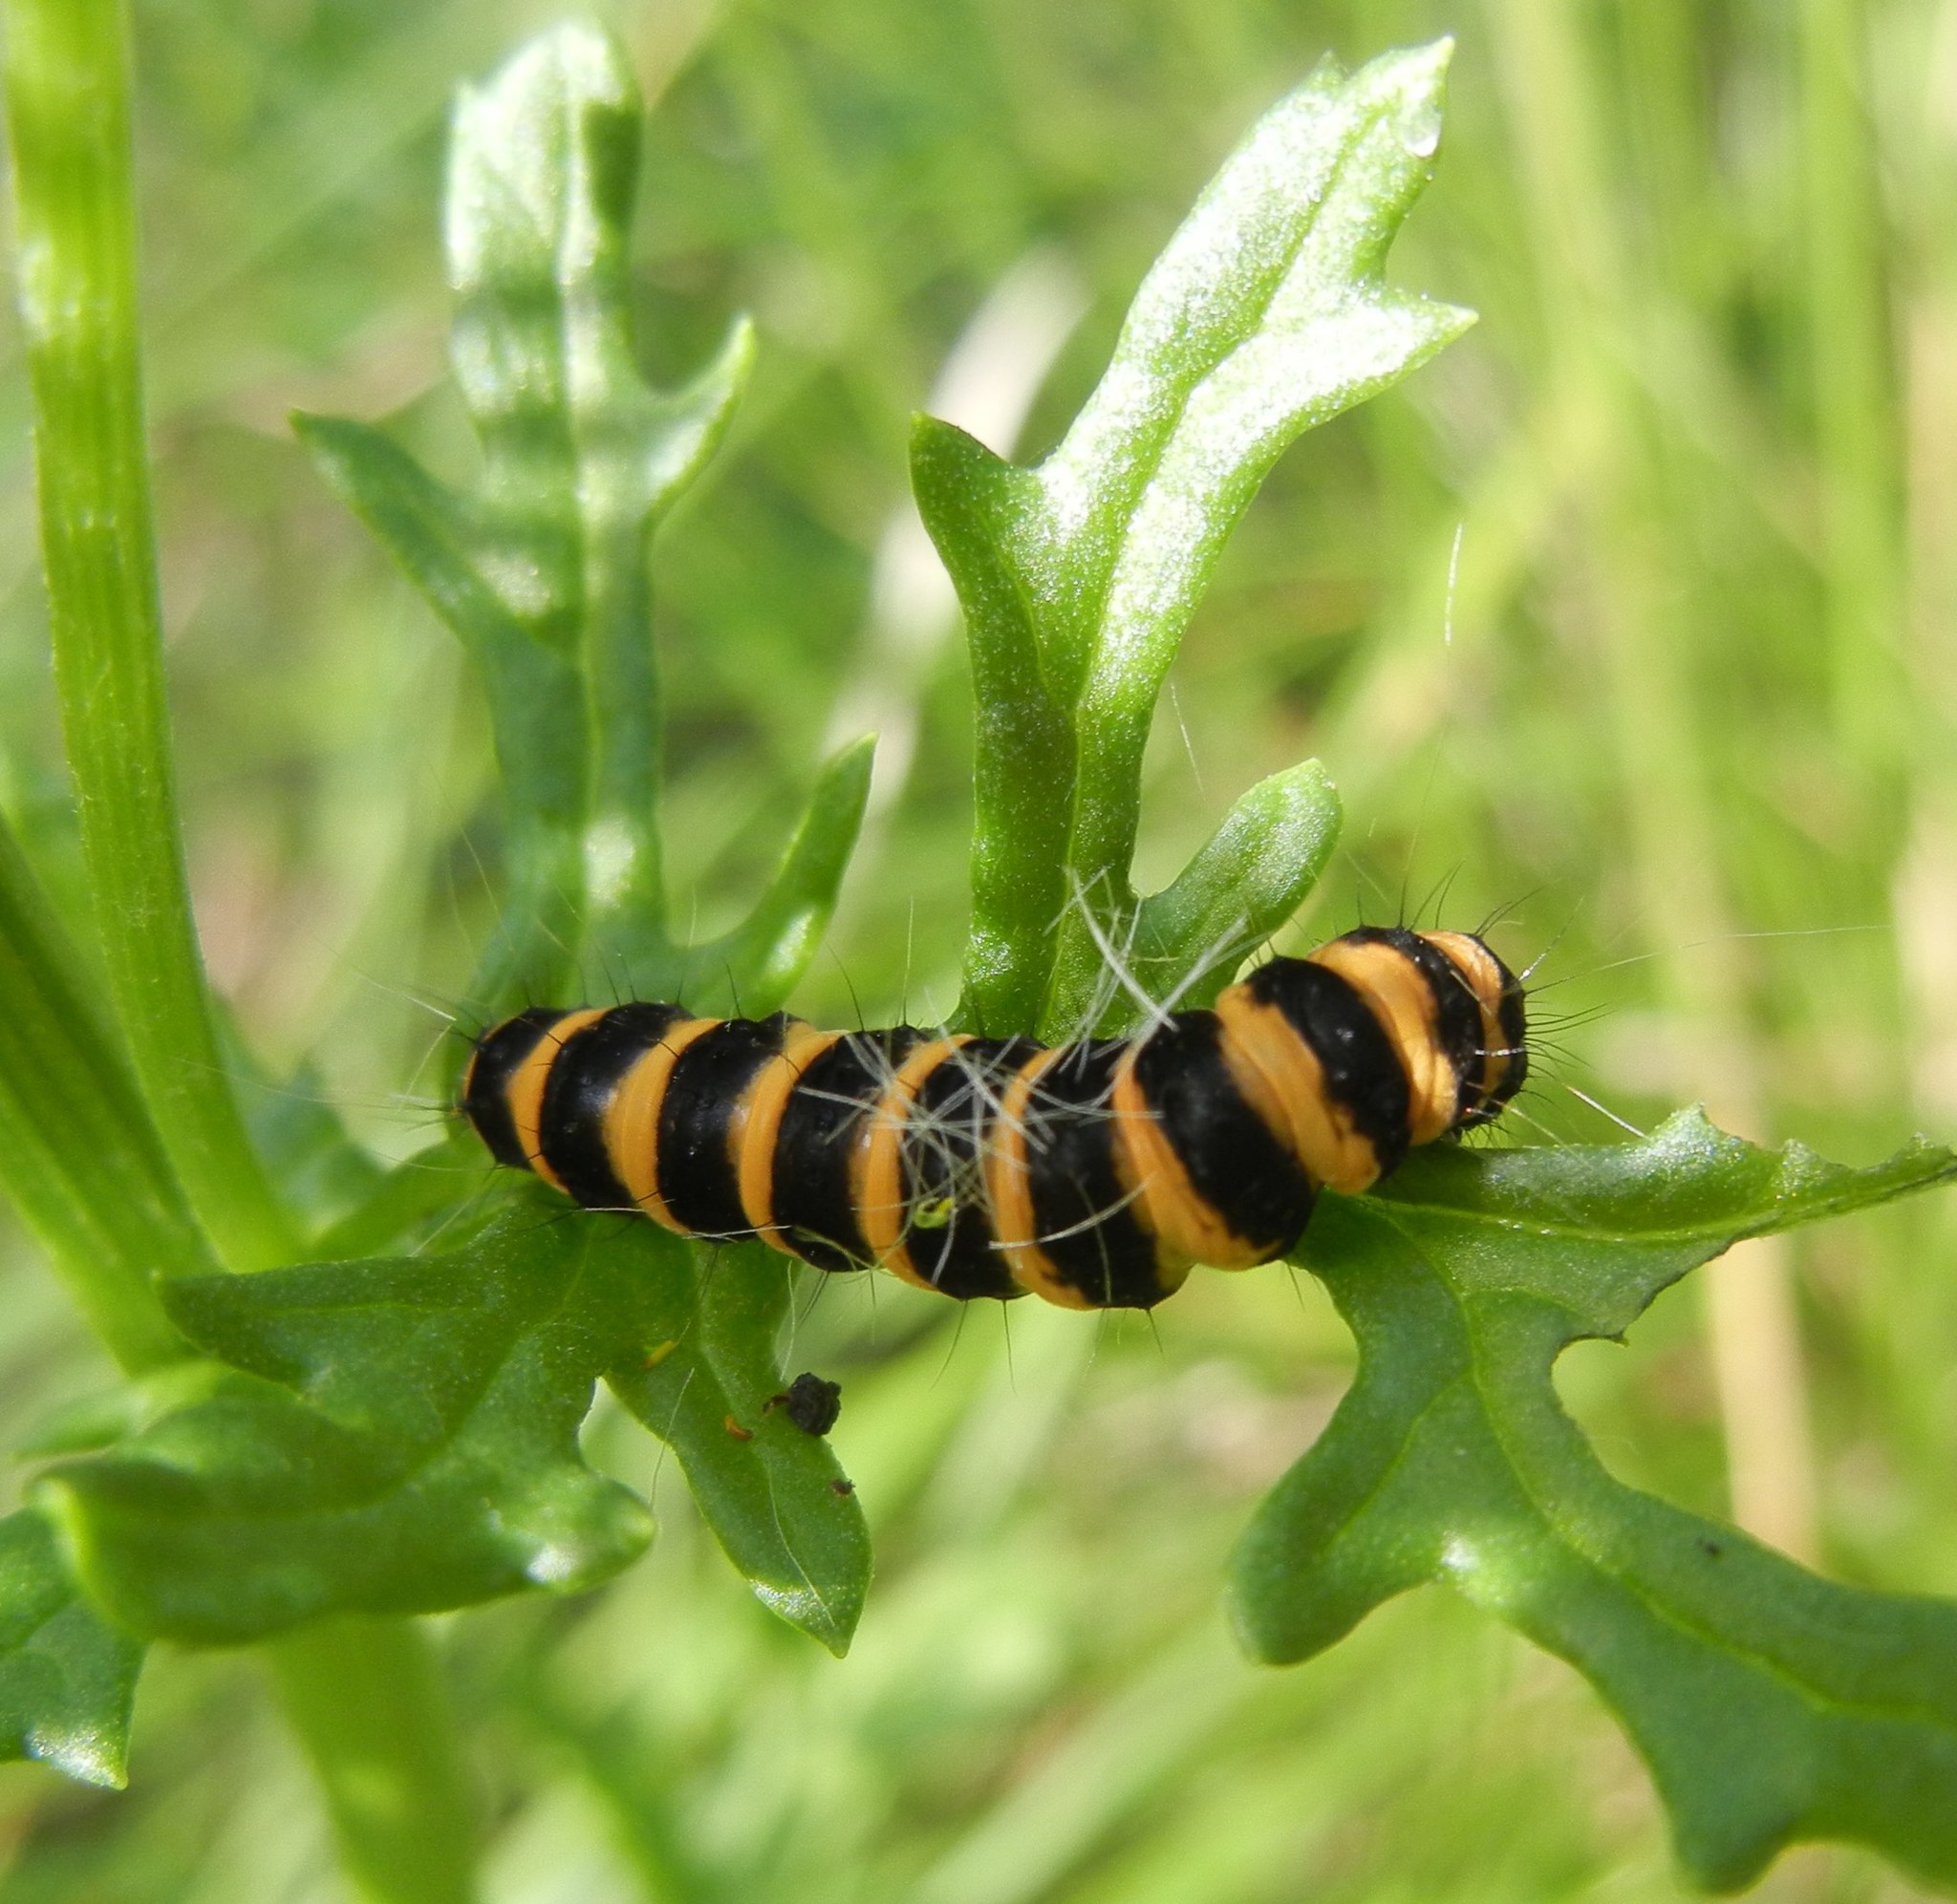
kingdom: Animalia
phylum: Arthropoda
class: Insecta
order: Lepidoptera
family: Erebidae
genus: Tyria
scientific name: Tyria jacobaeae
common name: Cinnabar
